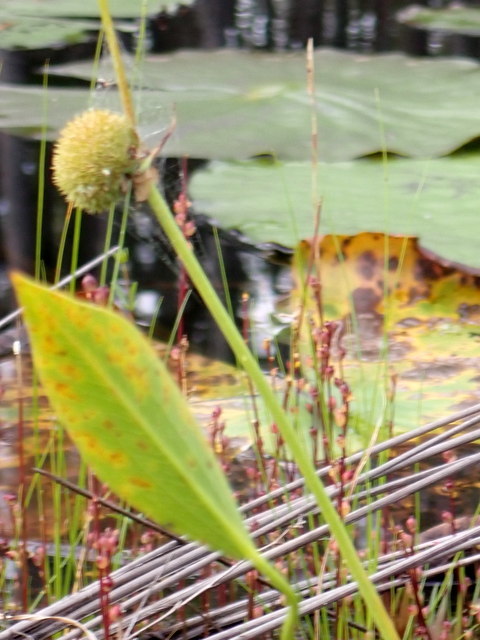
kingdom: Plantae
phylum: Tracheophyta
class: Liliopsida
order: Alismatales
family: Alismataceae
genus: Sagittaria
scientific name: Sagittaria engelmanniana
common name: Acid-water arrowhead
